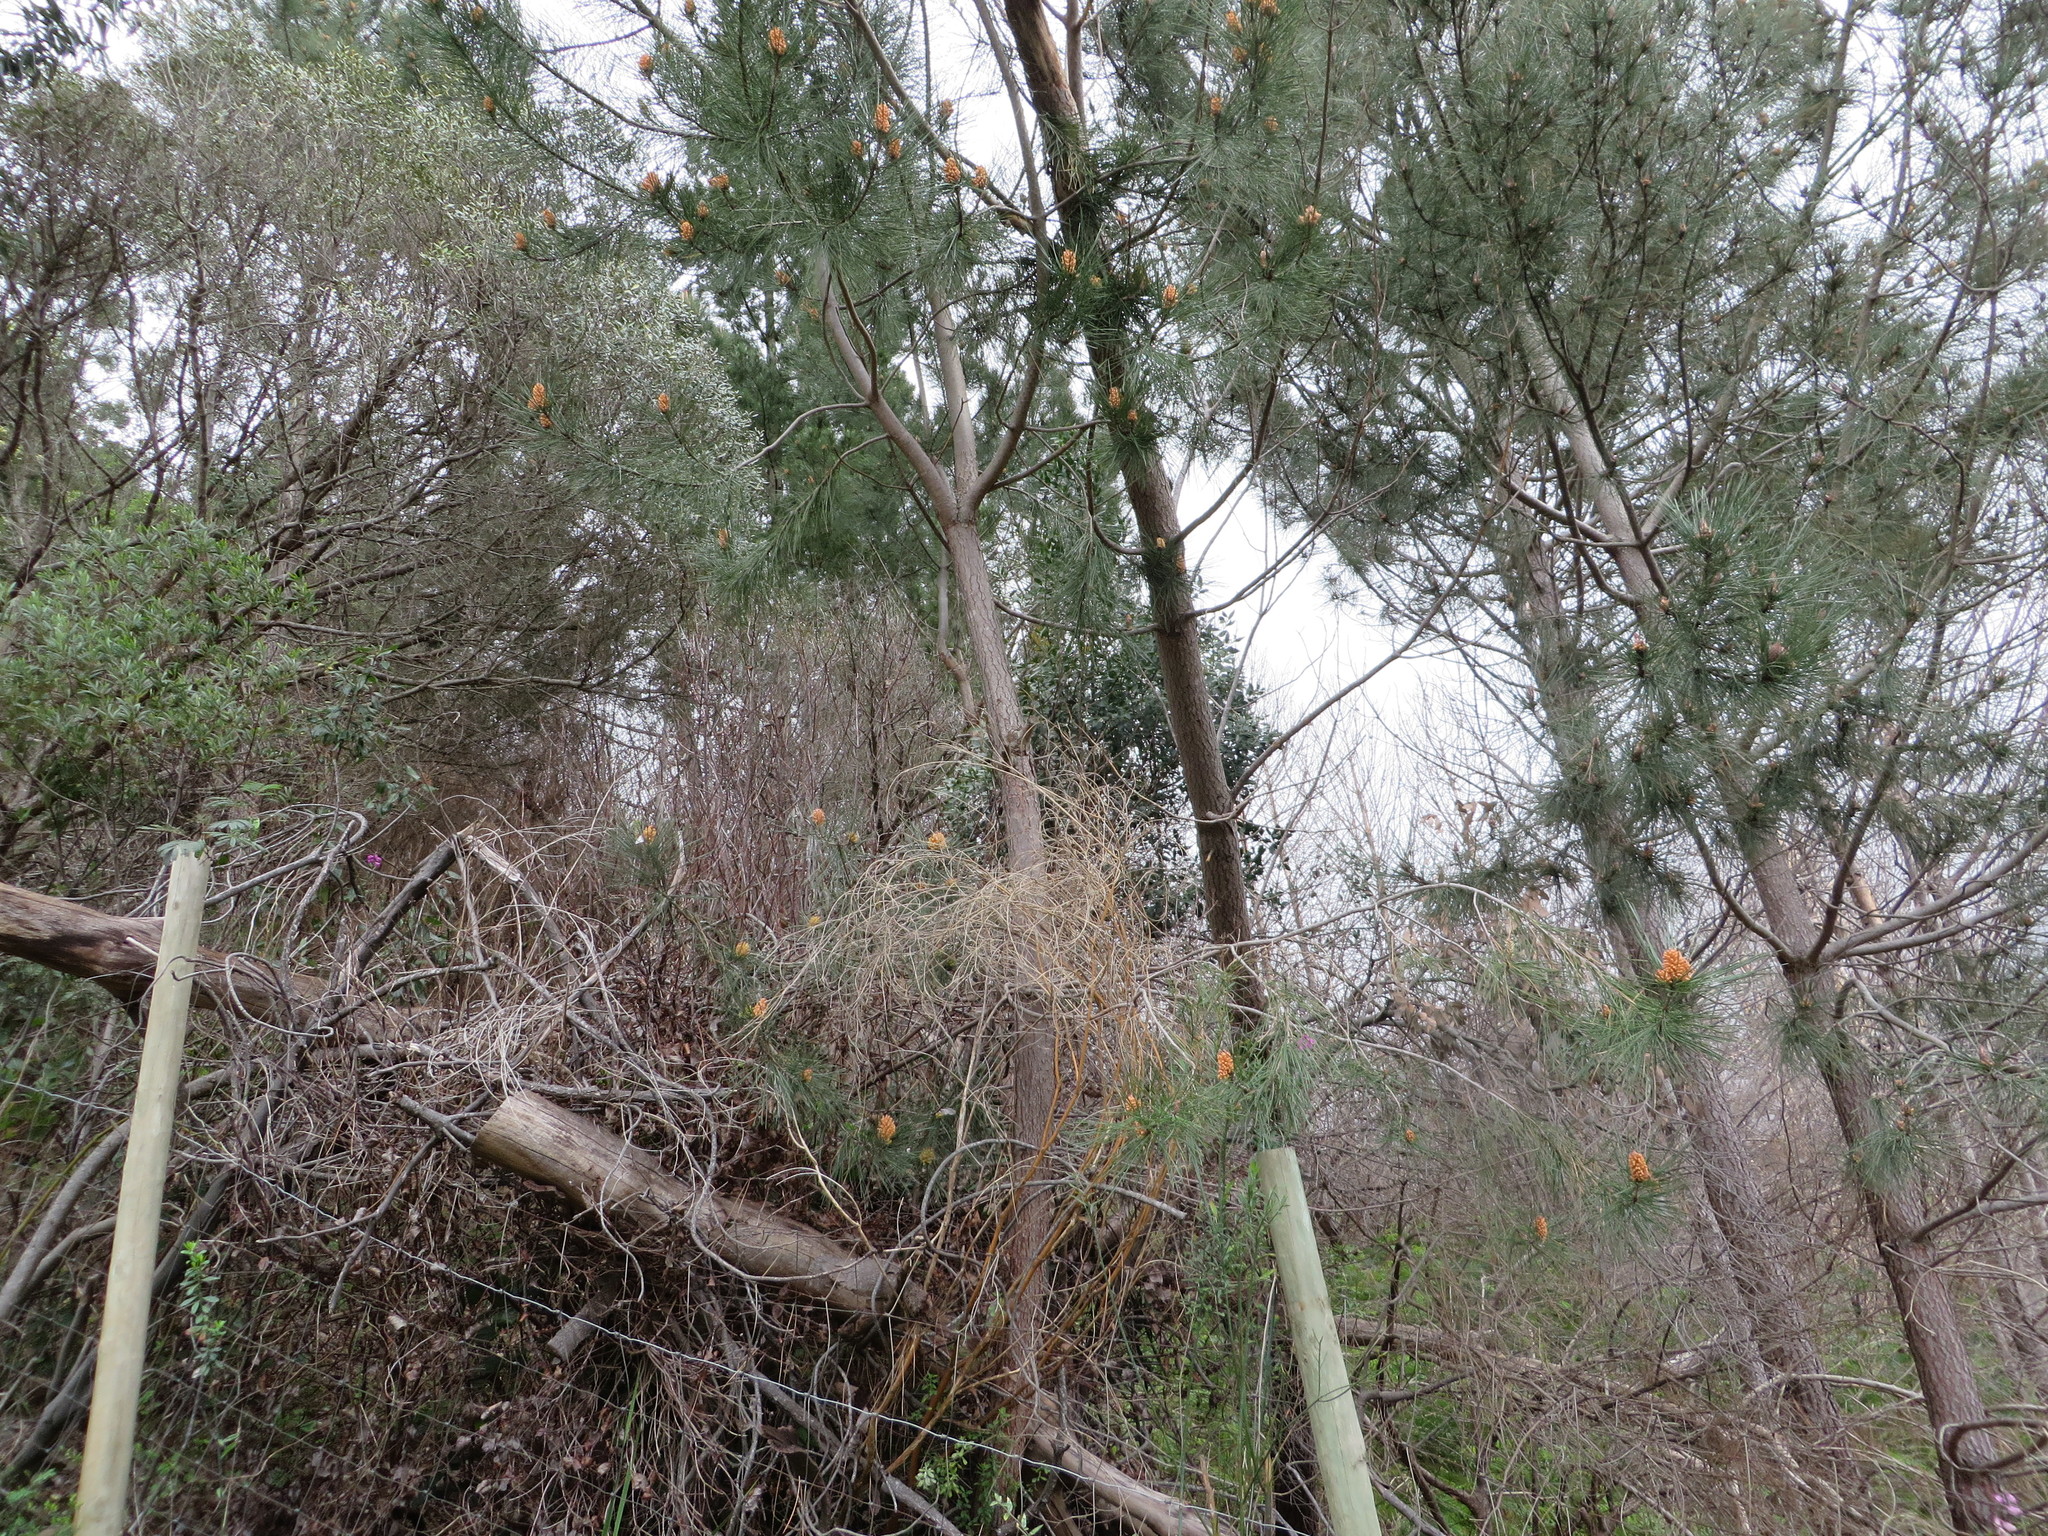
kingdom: Plantae
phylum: Tracheophyta
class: Pinopsida
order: Pinales
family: Pinaceae
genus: Pinus
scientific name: Pinus pinaster
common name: Maritime pine
